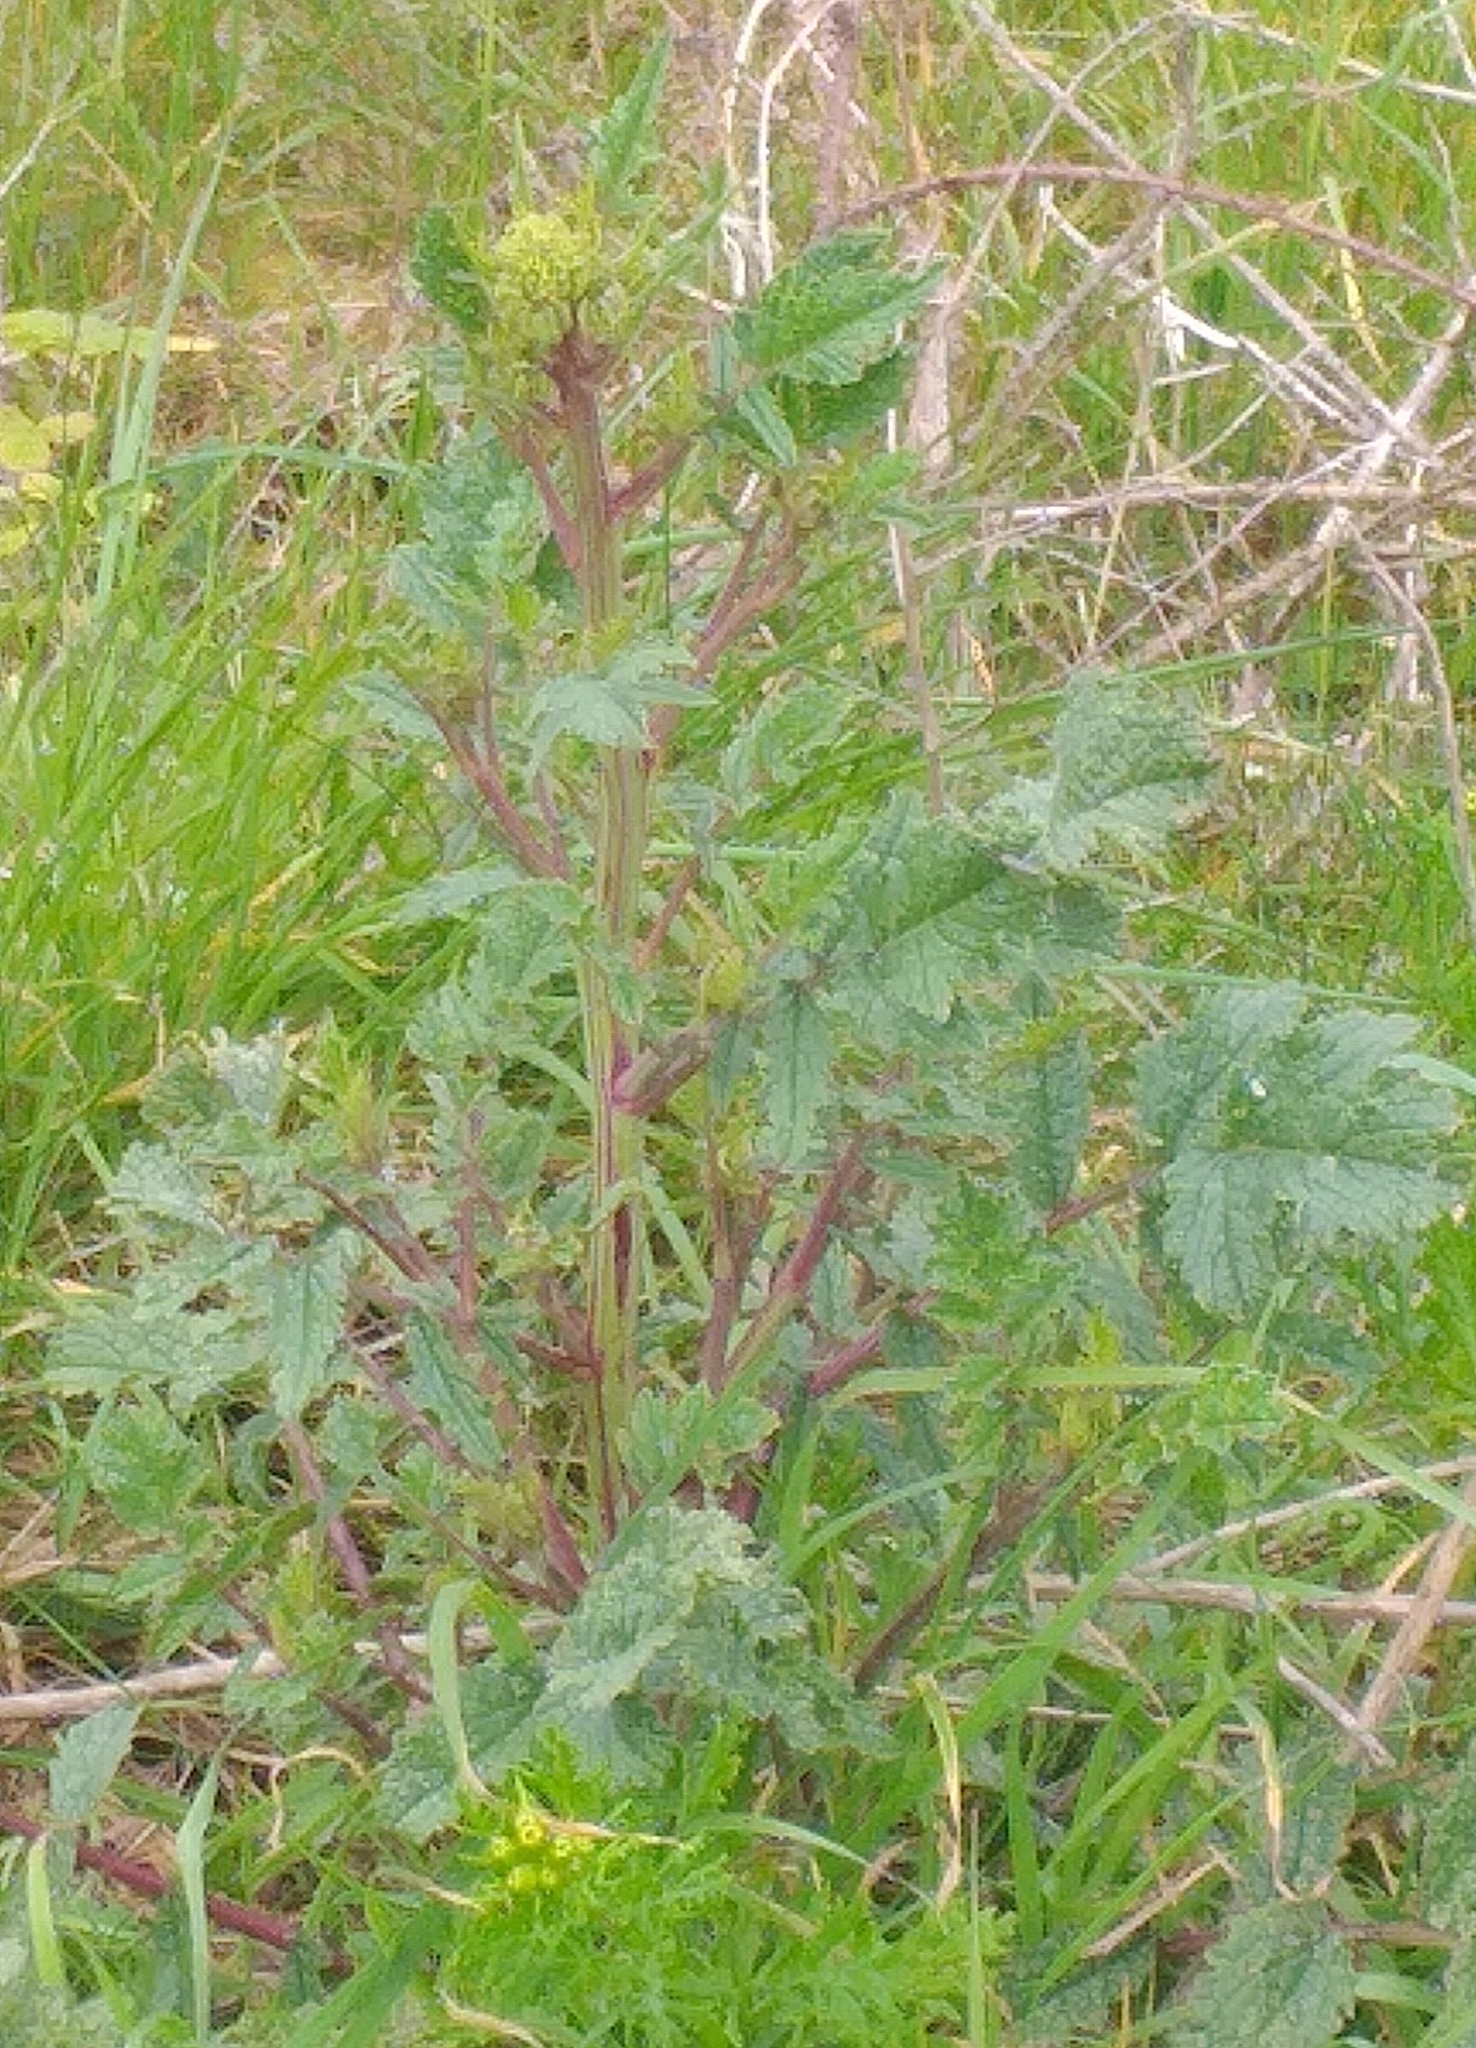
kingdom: Plantae
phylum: Tracheophyta
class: Magnoliopsida
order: Brassicales
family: Brassicaceae
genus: Raphanus
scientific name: Raphanus raphanistrum
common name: Wild radish
